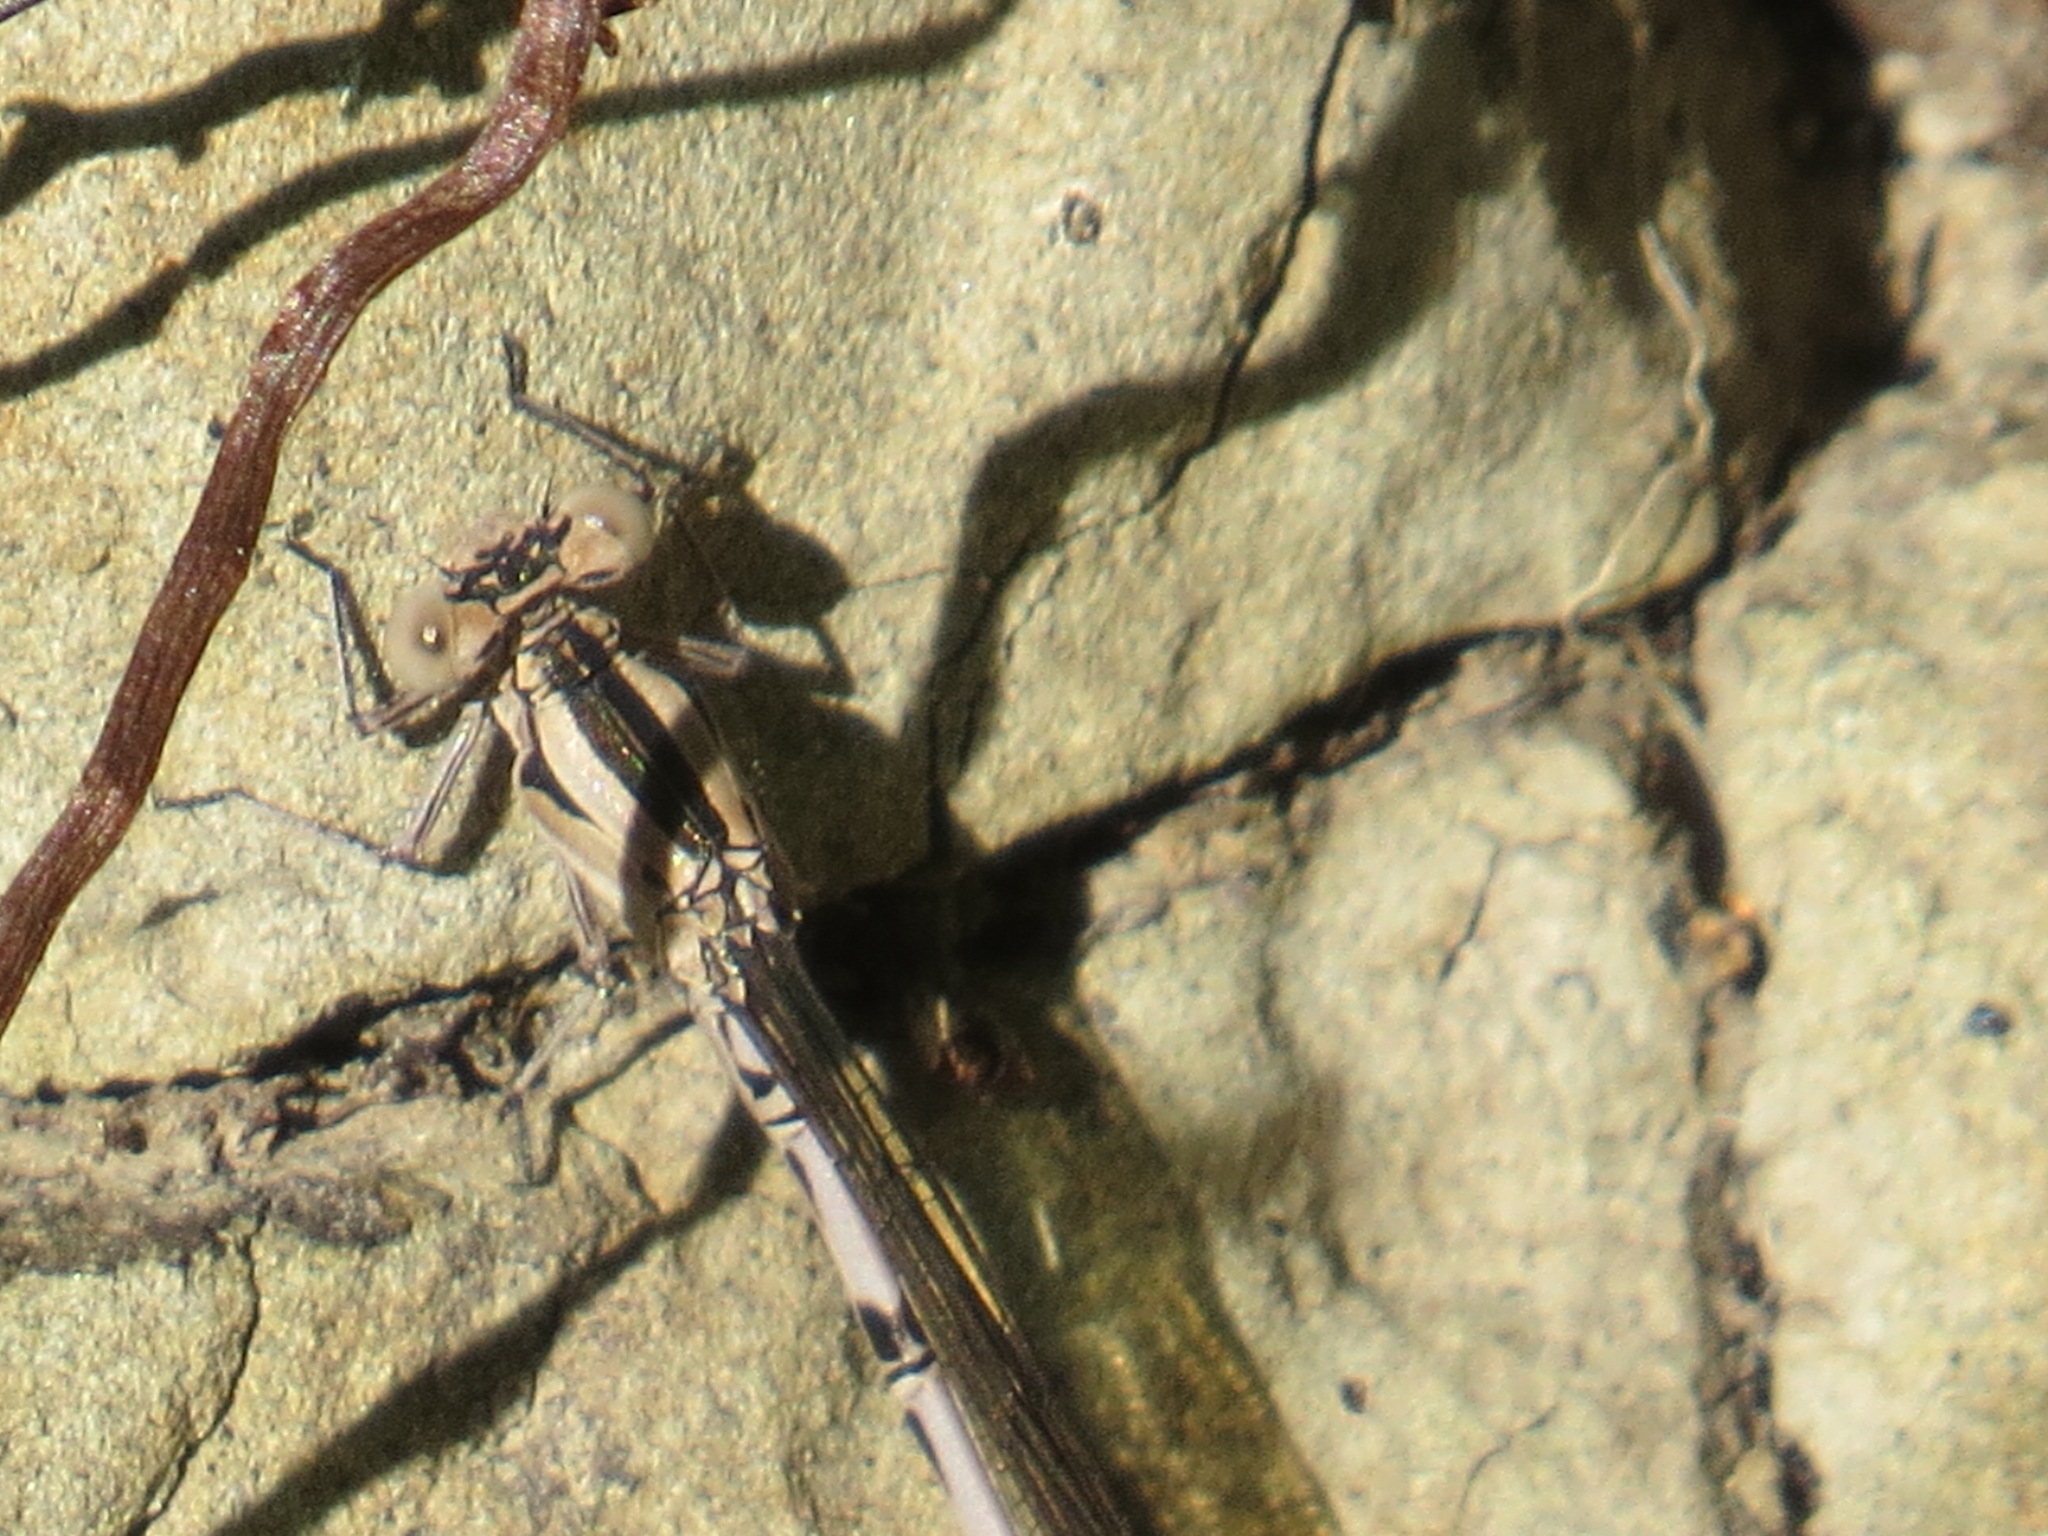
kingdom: Animalia
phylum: Arthropoda
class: Insecta
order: Odonata
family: Coenagrionidae
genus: Argia
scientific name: Argia vivida
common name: Vivid dancer
